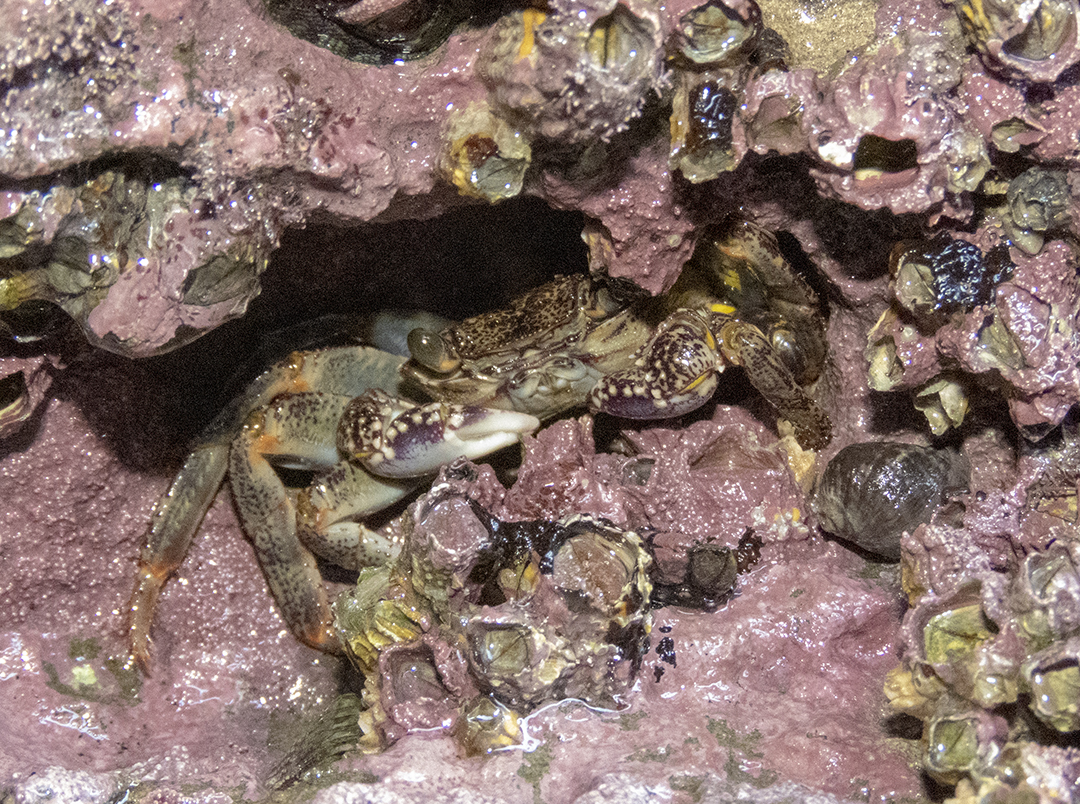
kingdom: Animalia
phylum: Arthropoda
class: Malacostraca
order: Decapoda
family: Grapsidae
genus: Leptograpsus
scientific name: Leptograpsus variegatus
